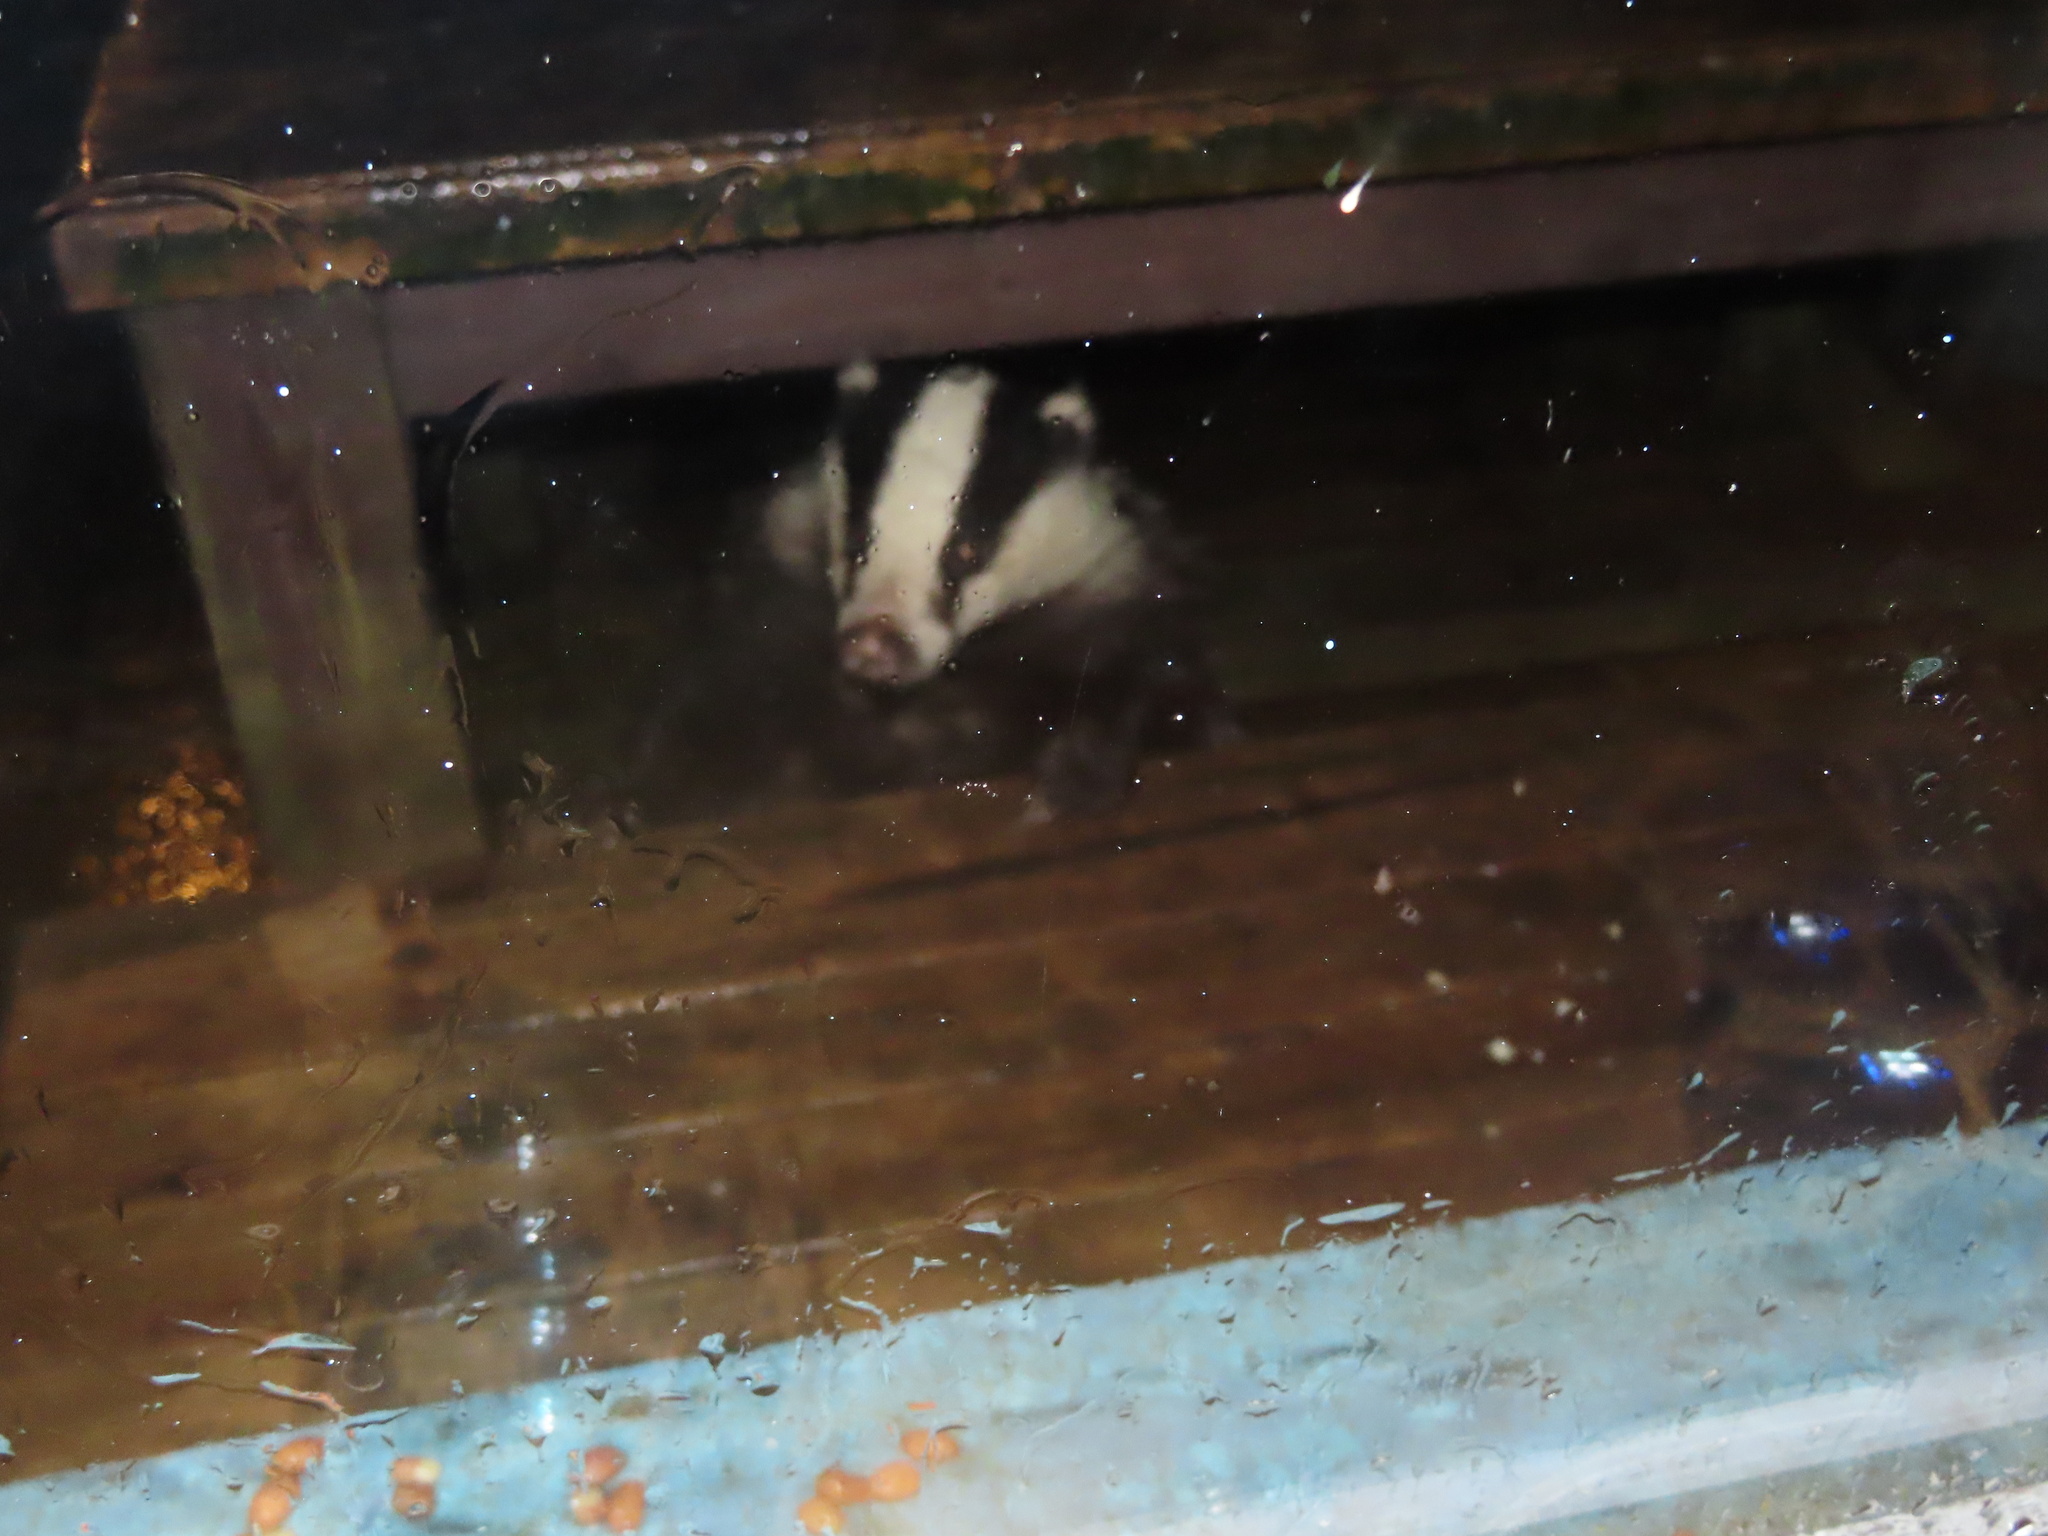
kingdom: Animalia
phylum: Chordata
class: Mammalia
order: Carnivora
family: Mustelidae
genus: Meles
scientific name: Meles meles
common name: Eurasian badger
